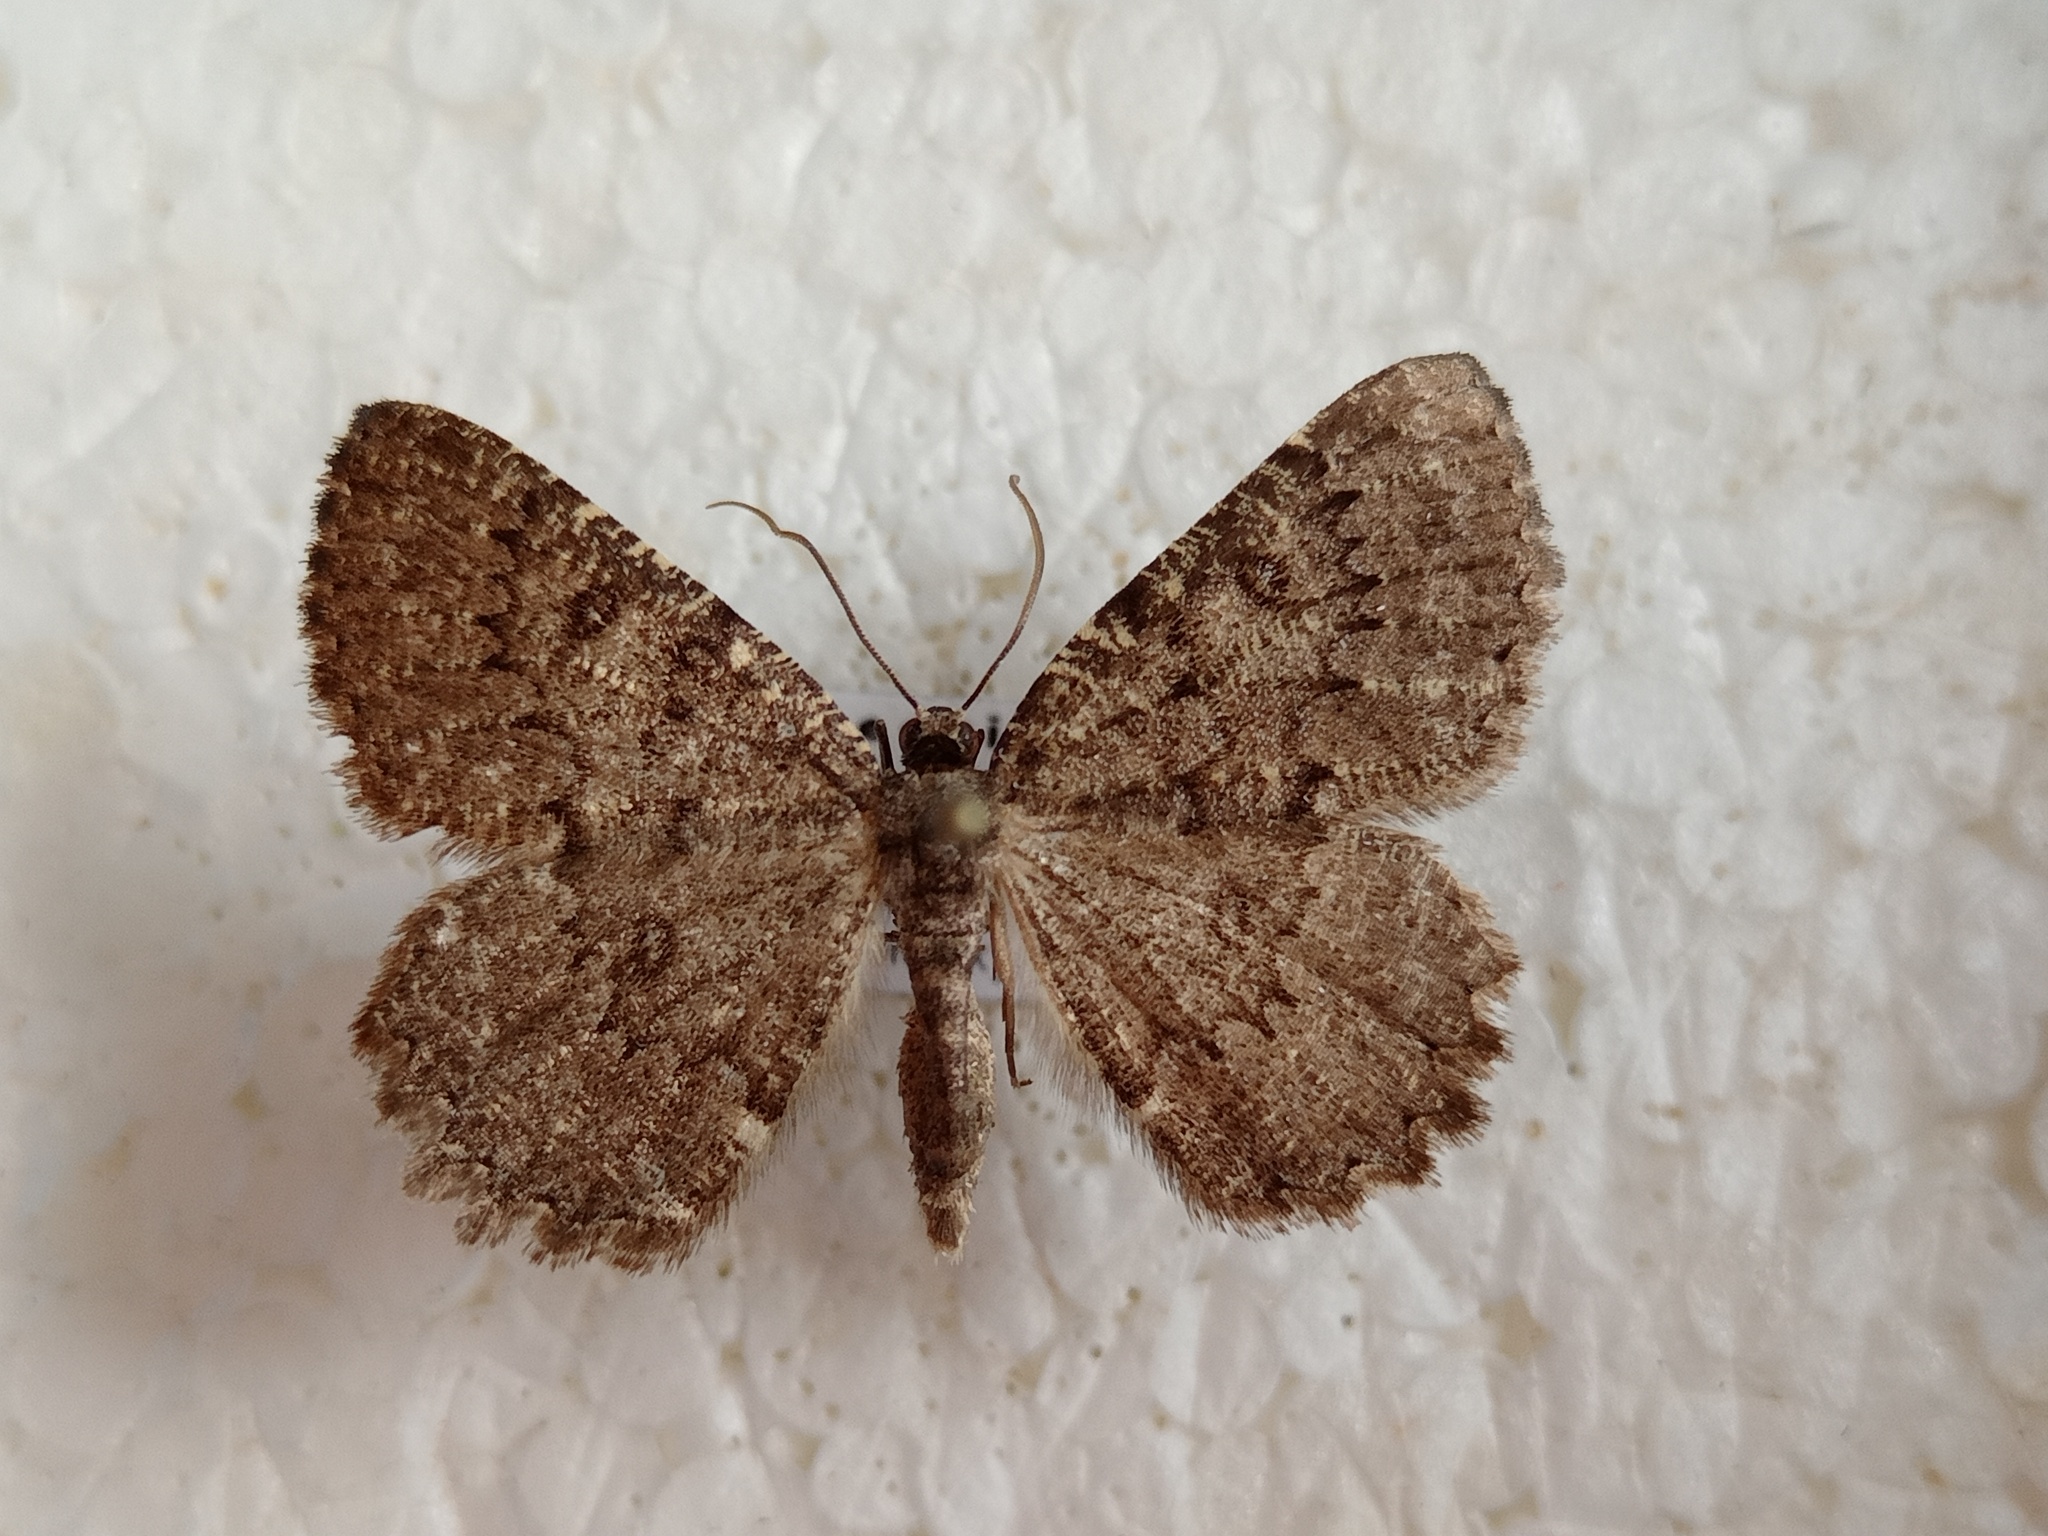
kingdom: Animalia
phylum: Arthropoda
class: Insecta
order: Lepidoptera
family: Geometridae
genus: Charissa
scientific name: Charissa obscurata
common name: Annulet
